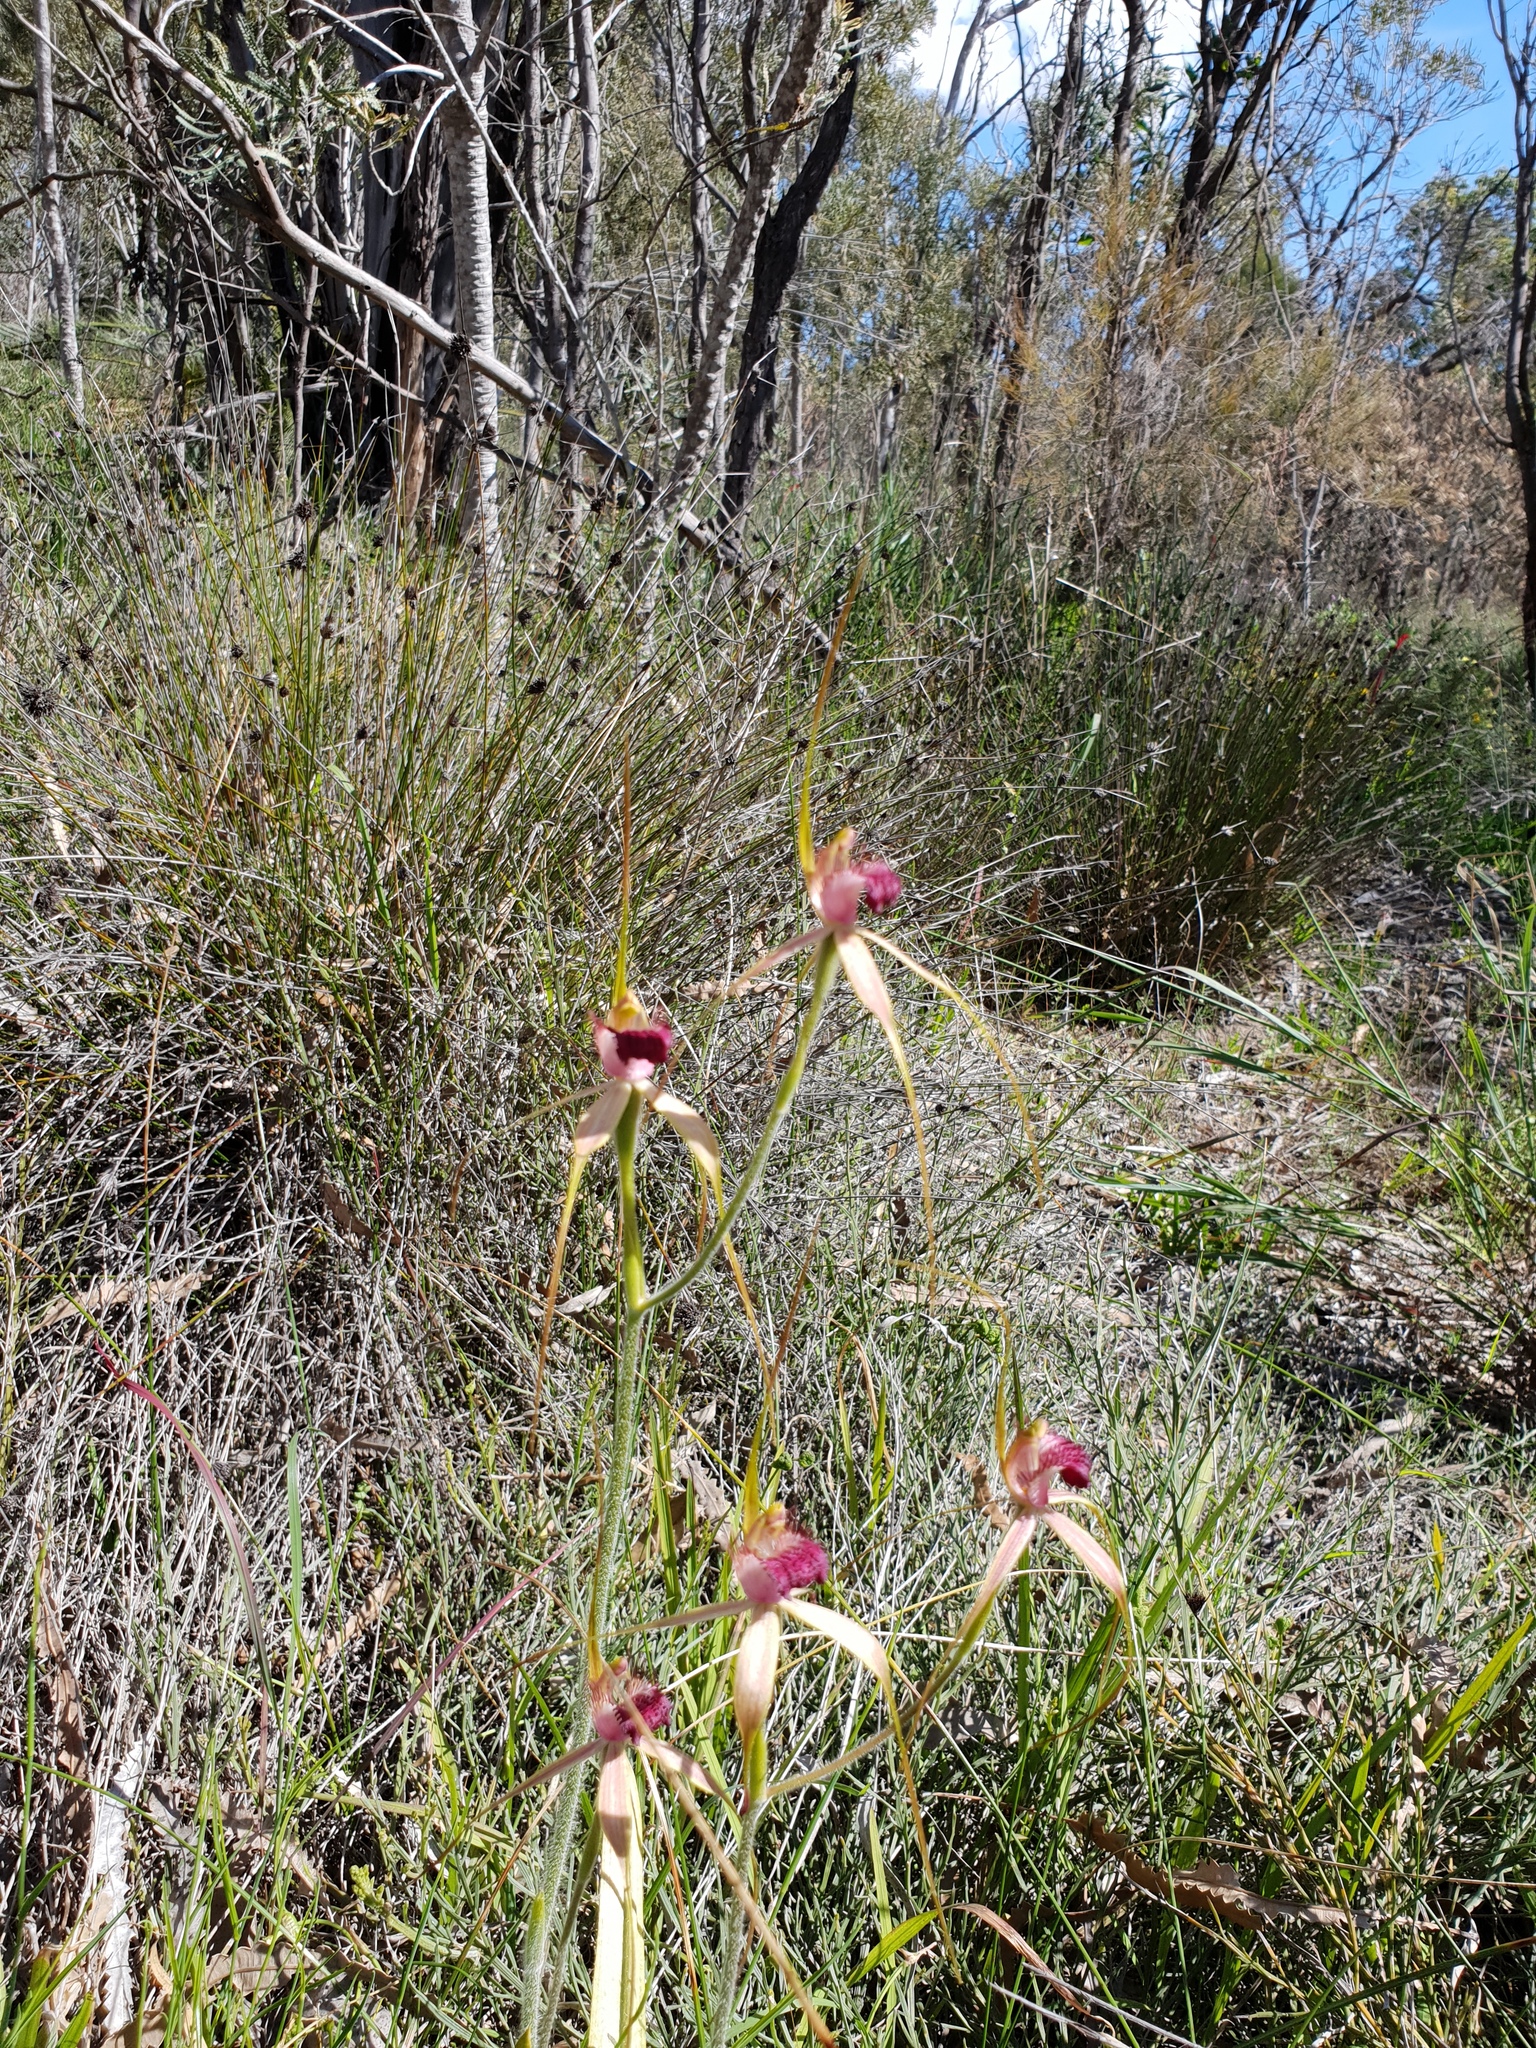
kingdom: Plantae
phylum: Tracheophyta
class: Liliopsida
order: Asparagales
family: Orchidaceae
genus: Caladenia
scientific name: Caladenia arenicola
